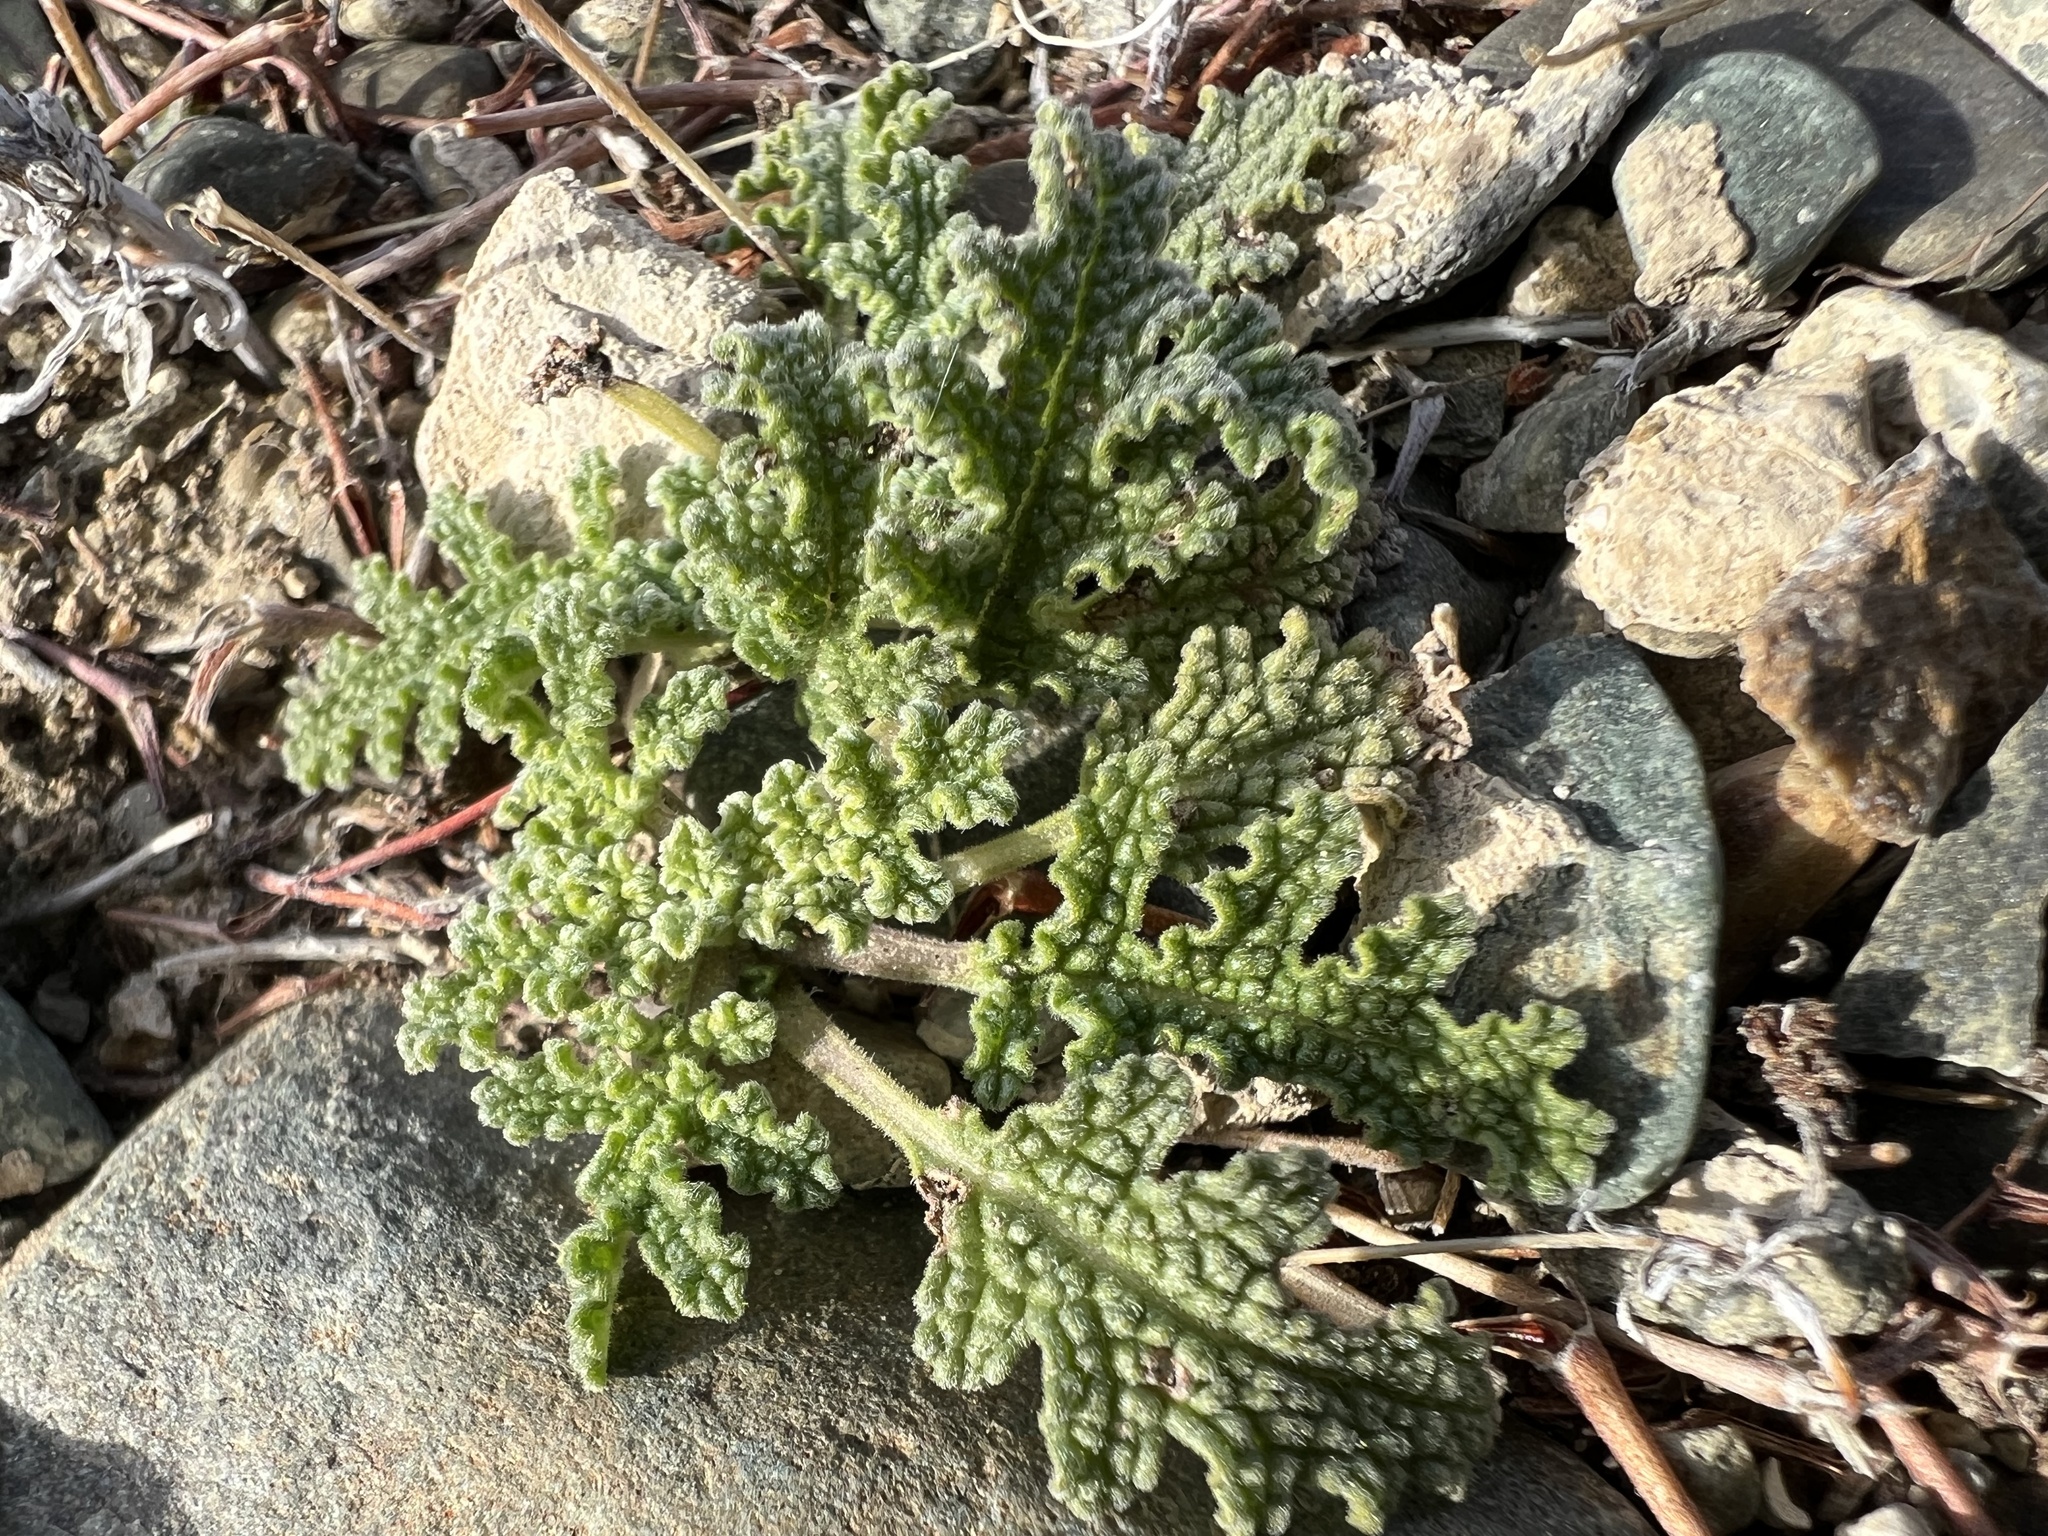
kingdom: Plantae
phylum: Tracheophyta
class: Magnoliopsida
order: Lamiales
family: Lamiaceae
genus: Salvia
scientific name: Salvia columbariae
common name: Chia
